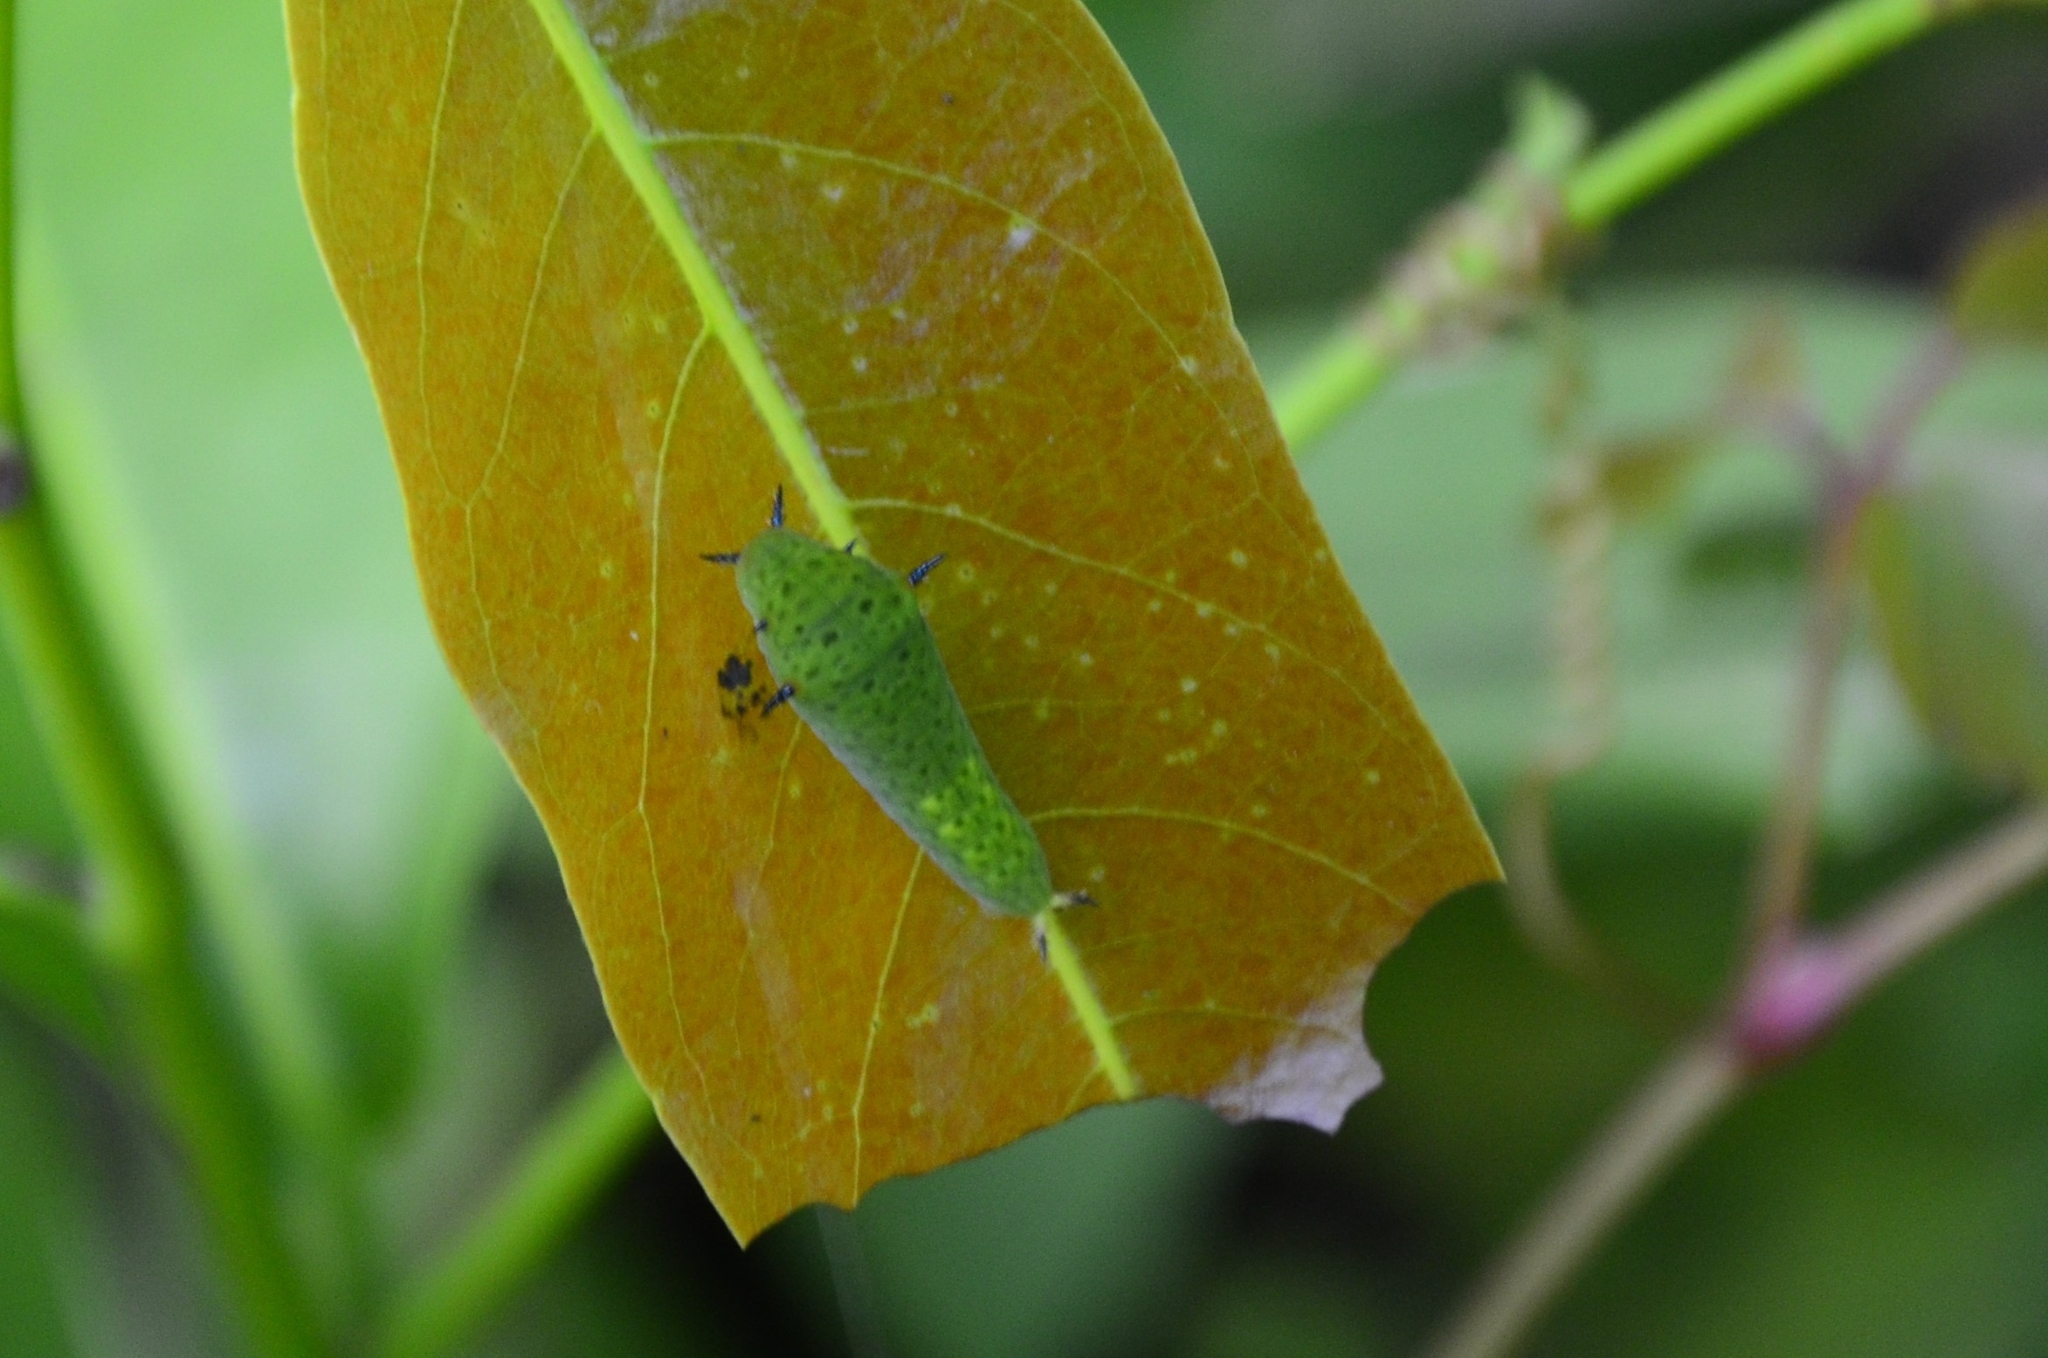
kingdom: Animalia
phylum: Arthropoda
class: Insecta
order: Lepidoptera
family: Papilionidae
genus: Graphium
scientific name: Graphium agamemnon
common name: Tailed jay
